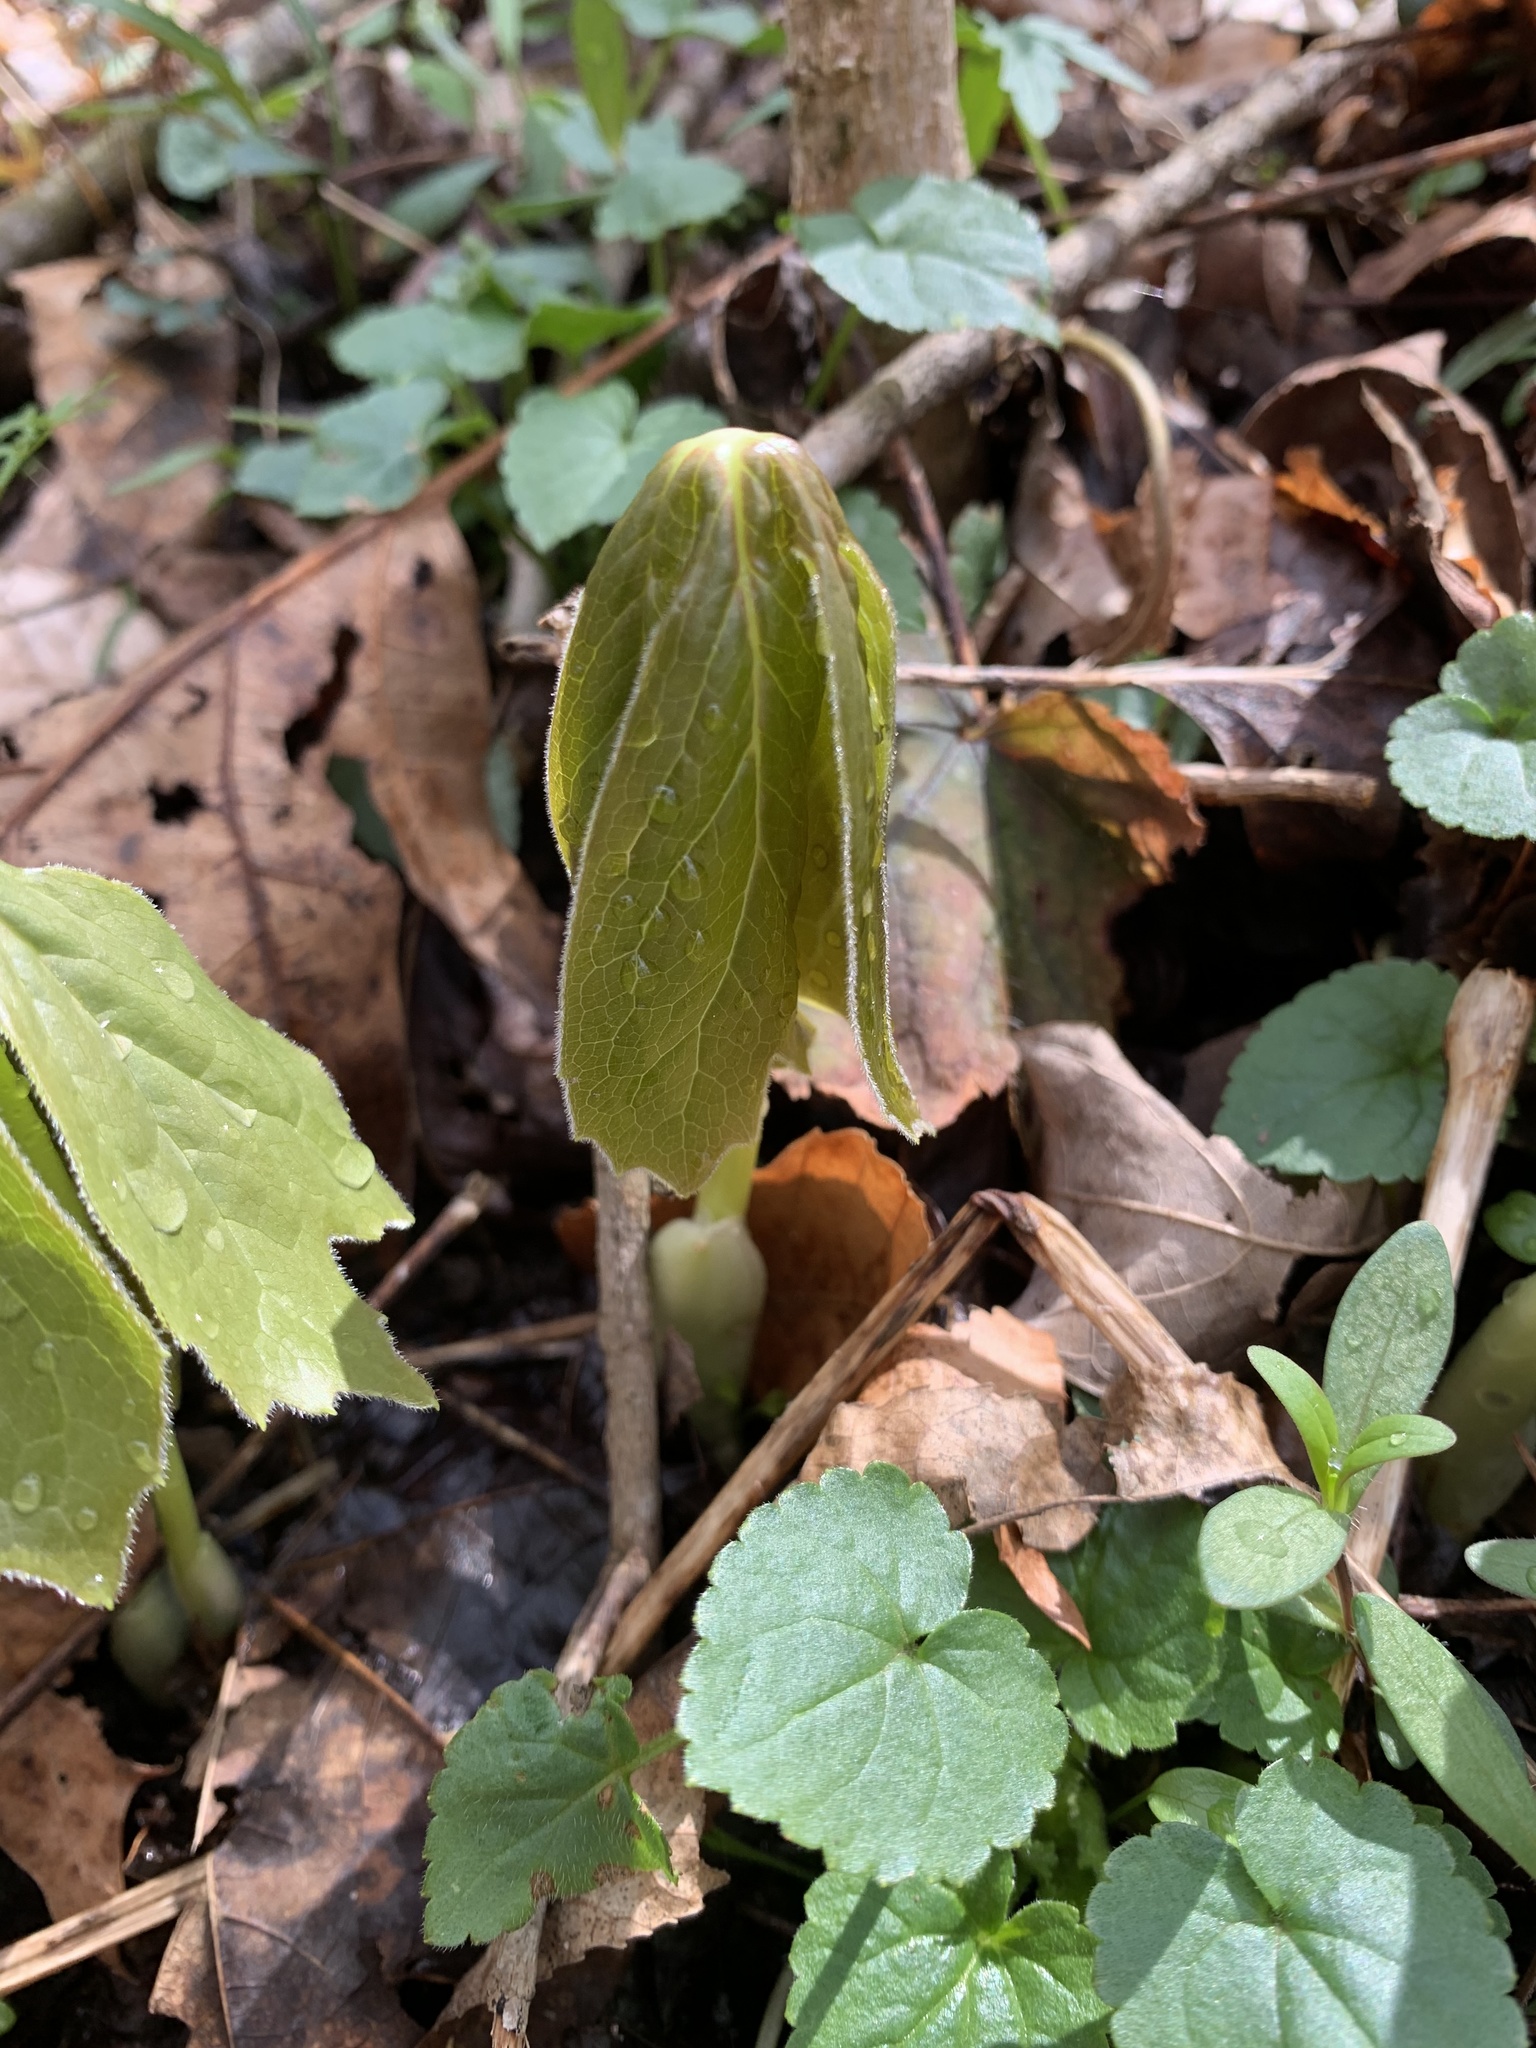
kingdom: Plantae
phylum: Tracheophyta
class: Magnoliopsida
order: Ranunculales
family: Berberidaceae
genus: Podophyllum
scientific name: Podophyllum peltatum
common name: Wild mandrake
